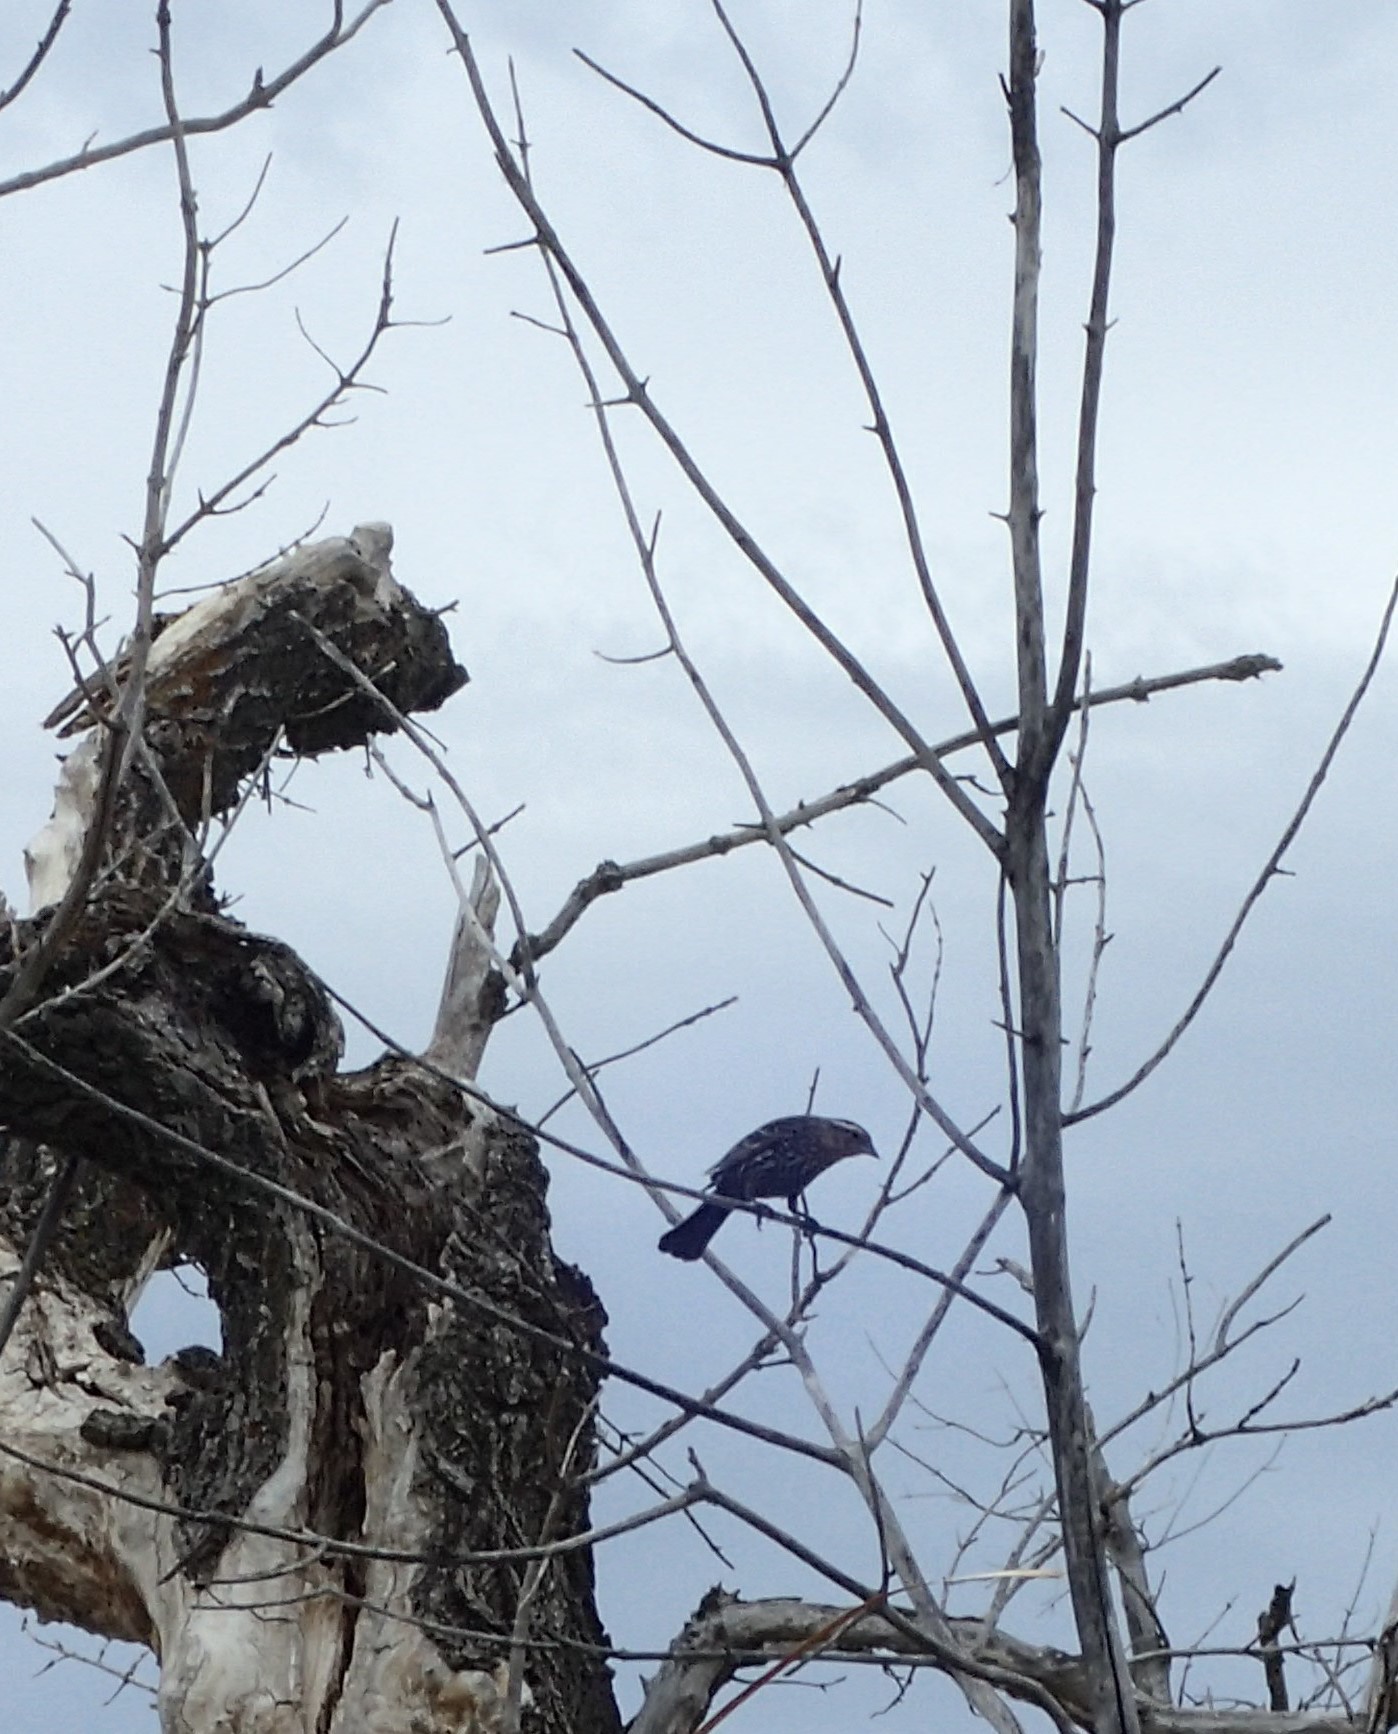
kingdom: Animalia
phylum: Chordata
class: Aves
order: Passeriformes
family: Icteridae
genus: Agelaius
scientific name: Agelaius phoeniceus
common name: Red-winged blackbird
